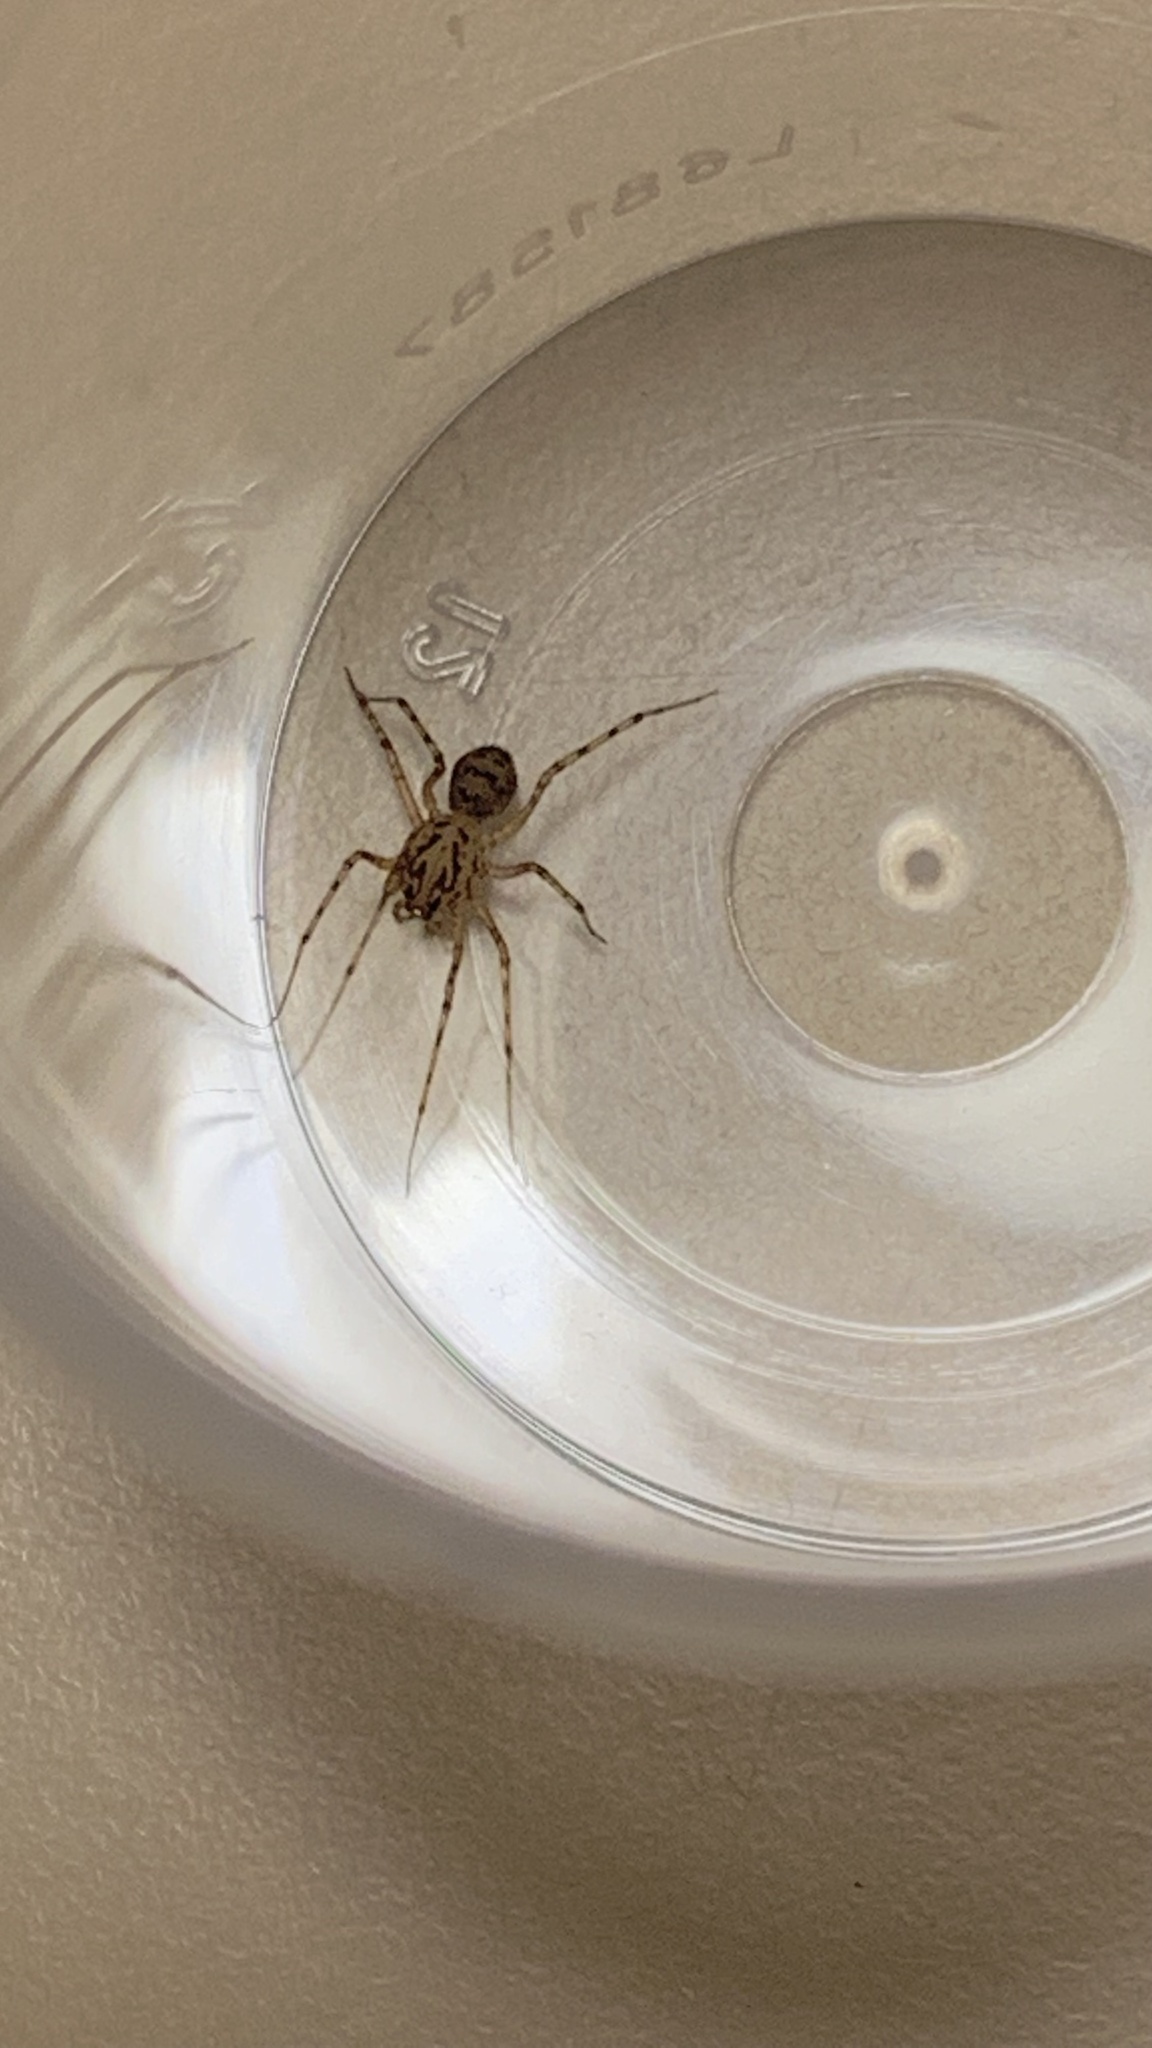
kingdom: Animalia
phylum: Arthropoda
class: Arachnida
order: Araneae
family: Scytodidae
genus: Scytodes
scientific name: Scytodes thoracica
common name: Spitting spider
